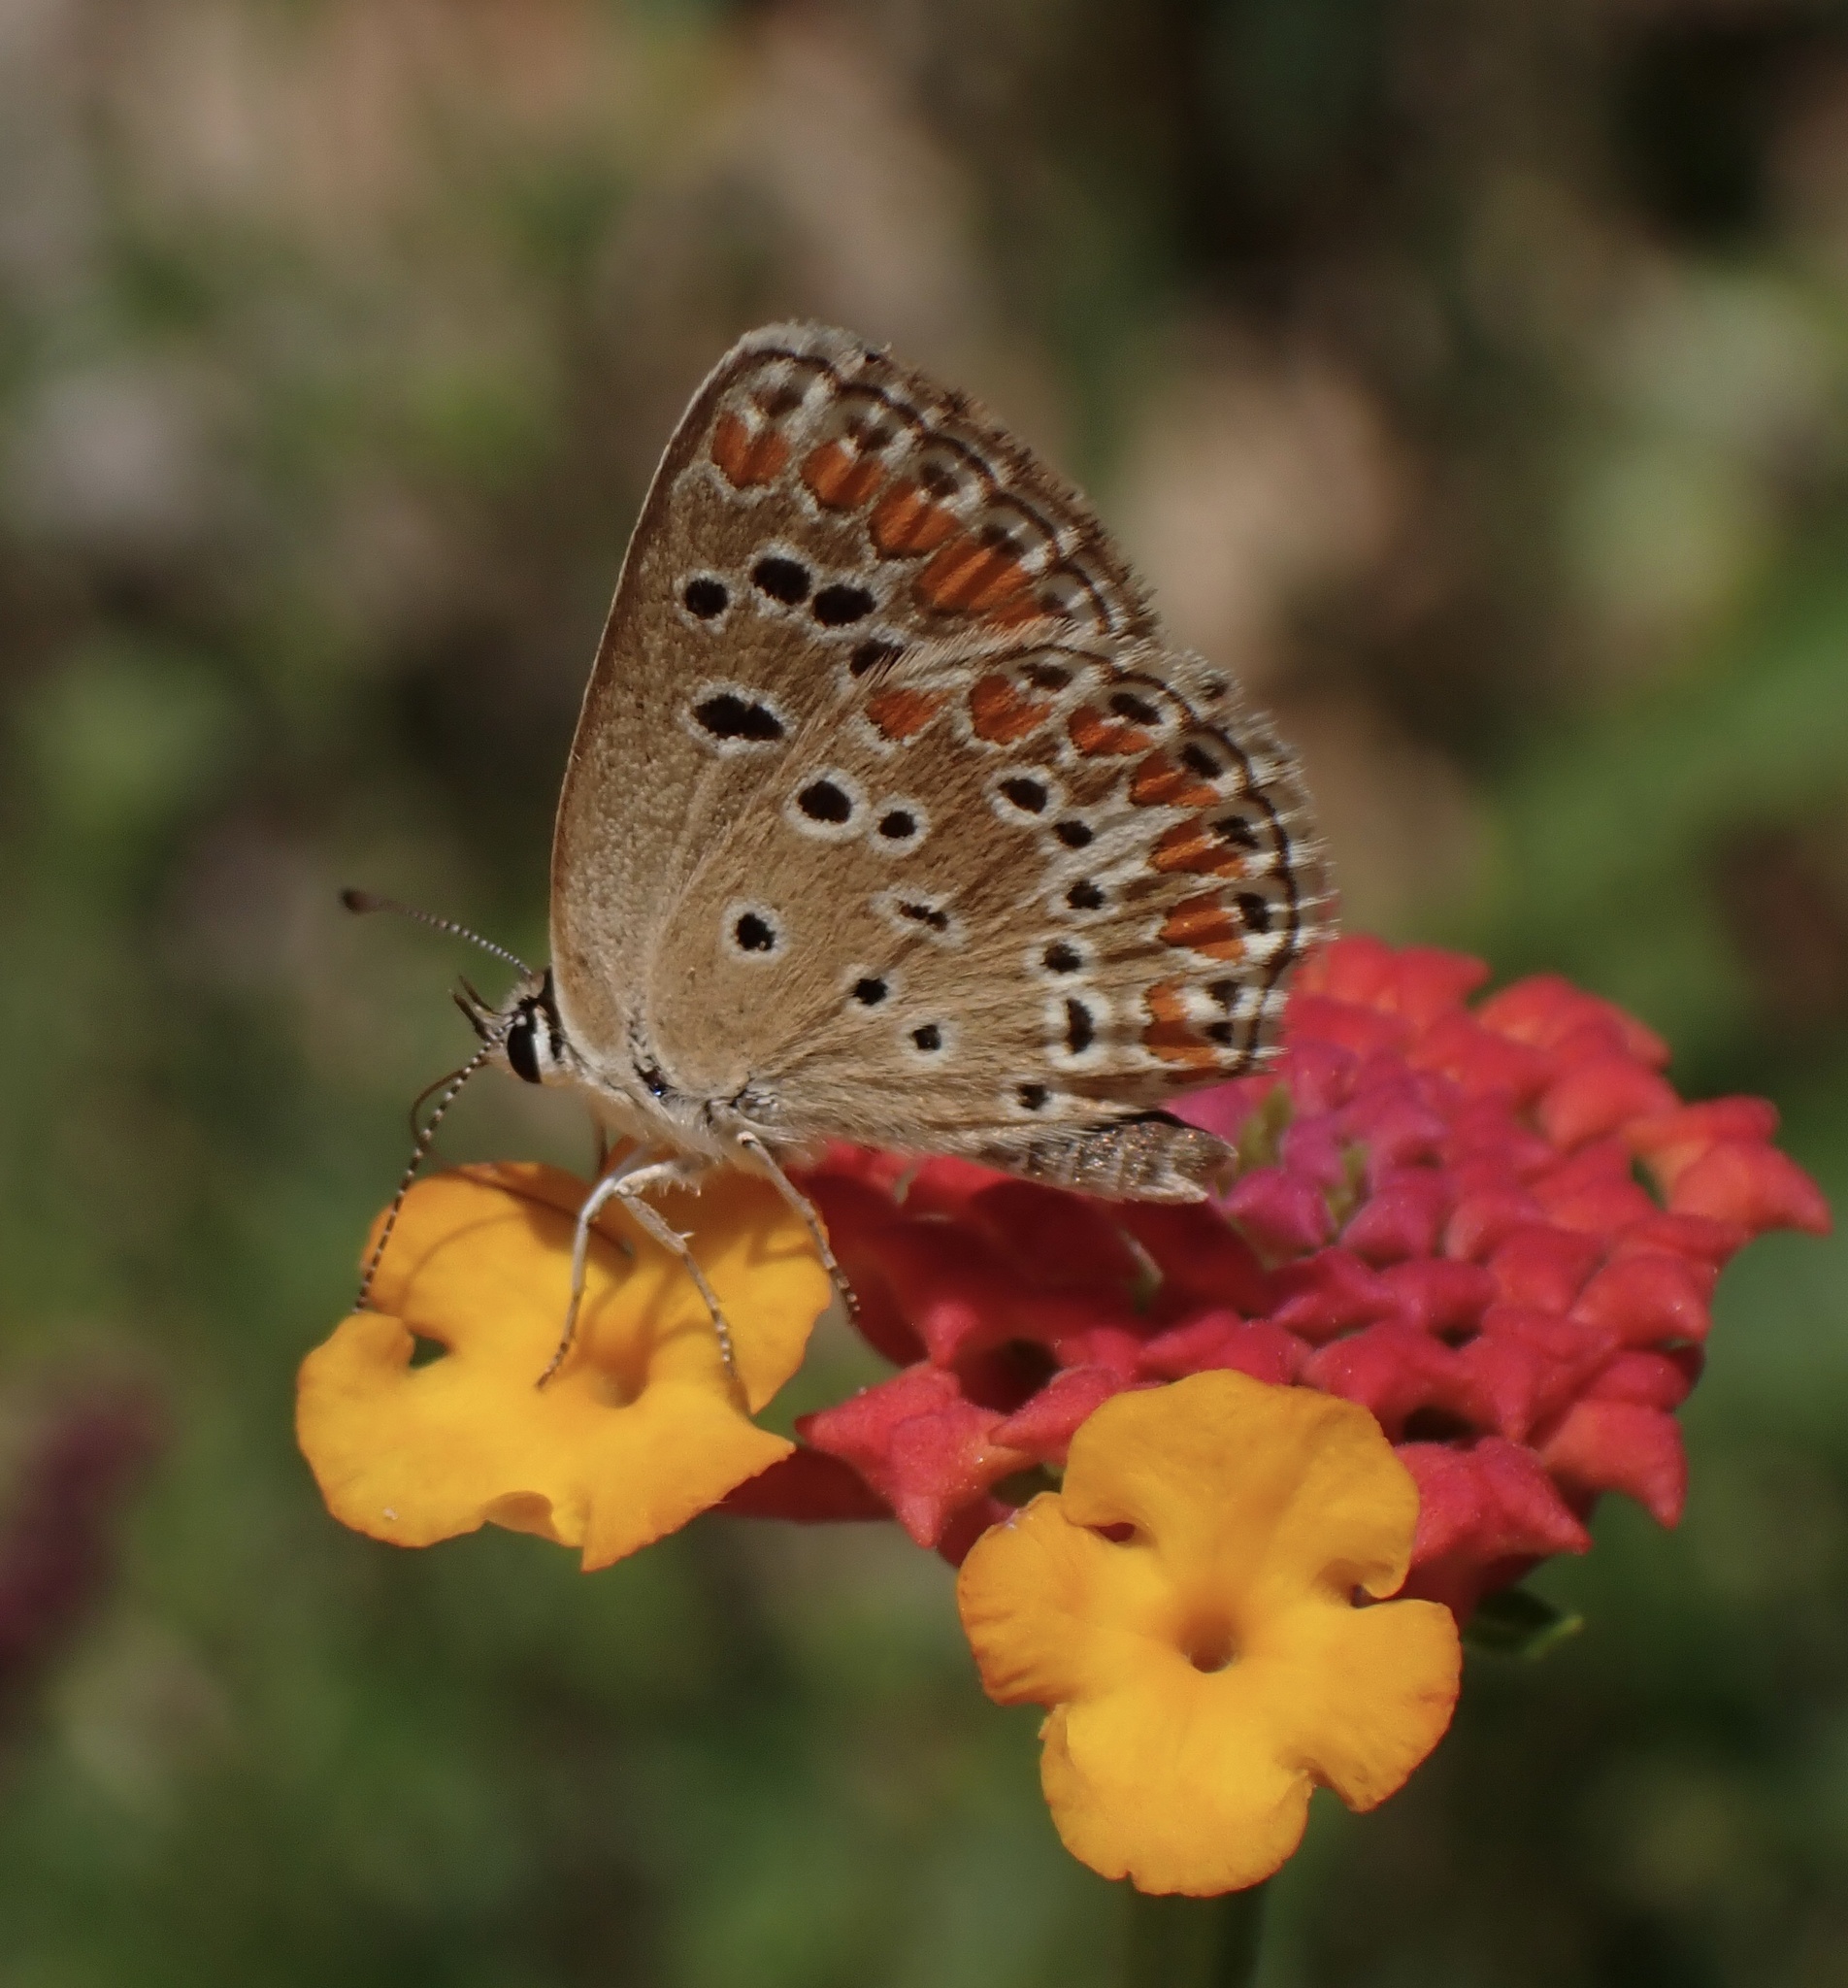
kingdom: Animalia
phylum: Arthropoda
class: Insecta
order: Lepidoptera
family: Lycaenidae
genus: Aricia
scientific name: Aricia agestis
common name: Brown argus
